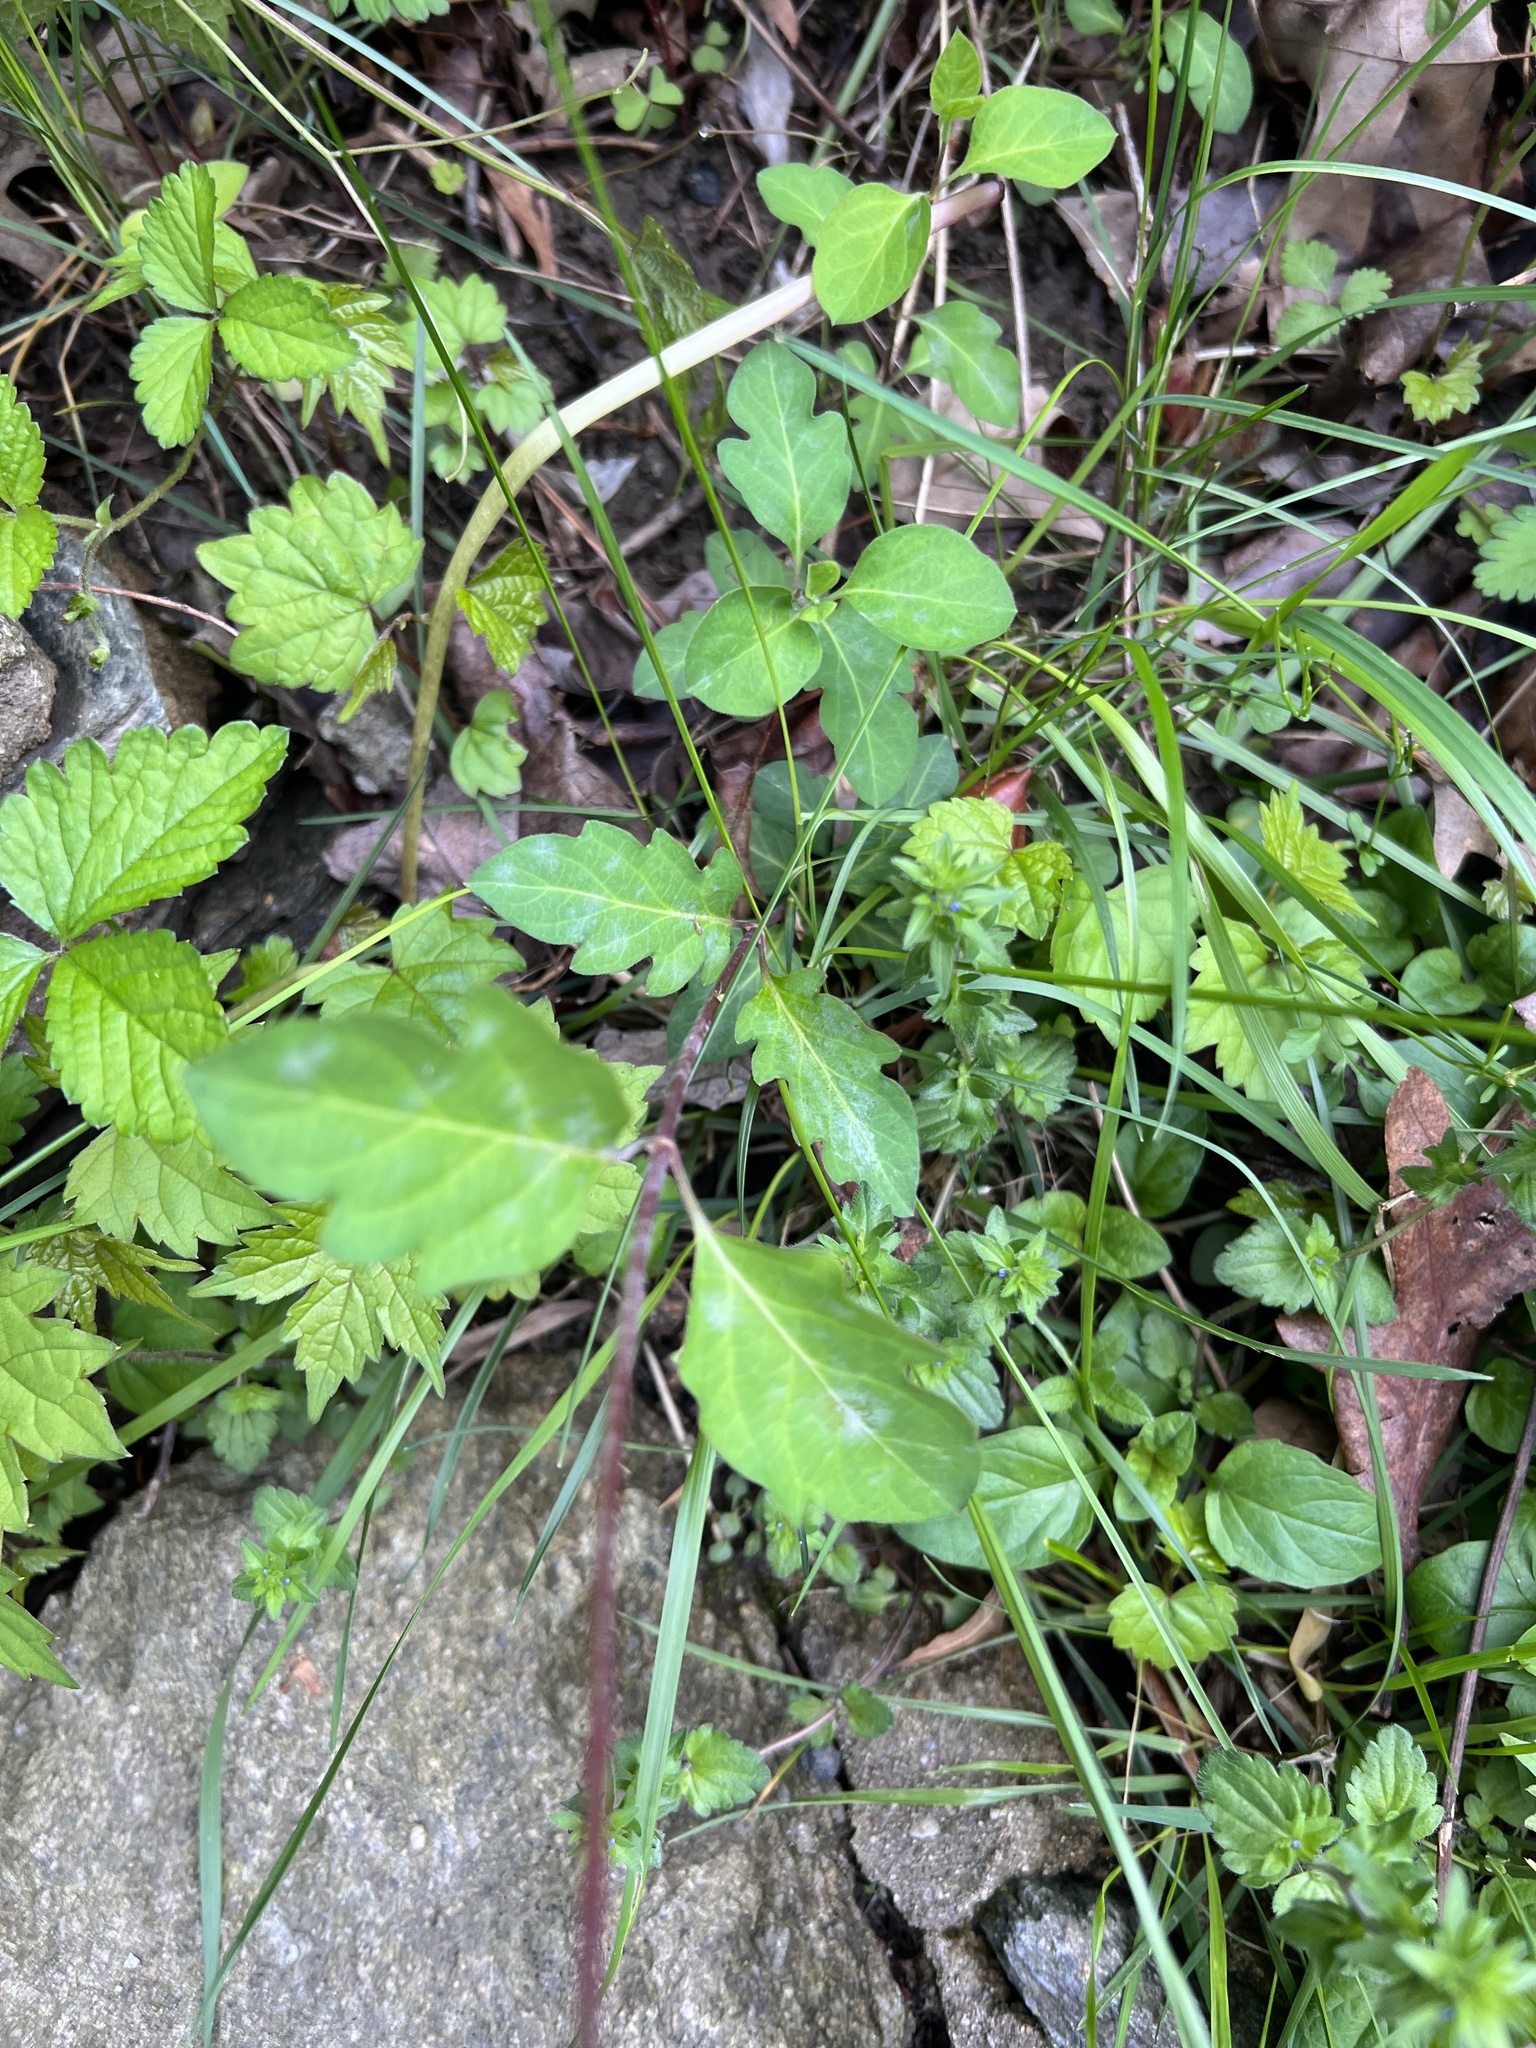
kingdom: Plantae
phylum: Tracheophyta
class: Magnoliopsida
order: Dipsacales
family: Caprifoliaceae
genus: Lonicera
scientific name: Lonicera japonica
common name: Japanese honeysuckle
